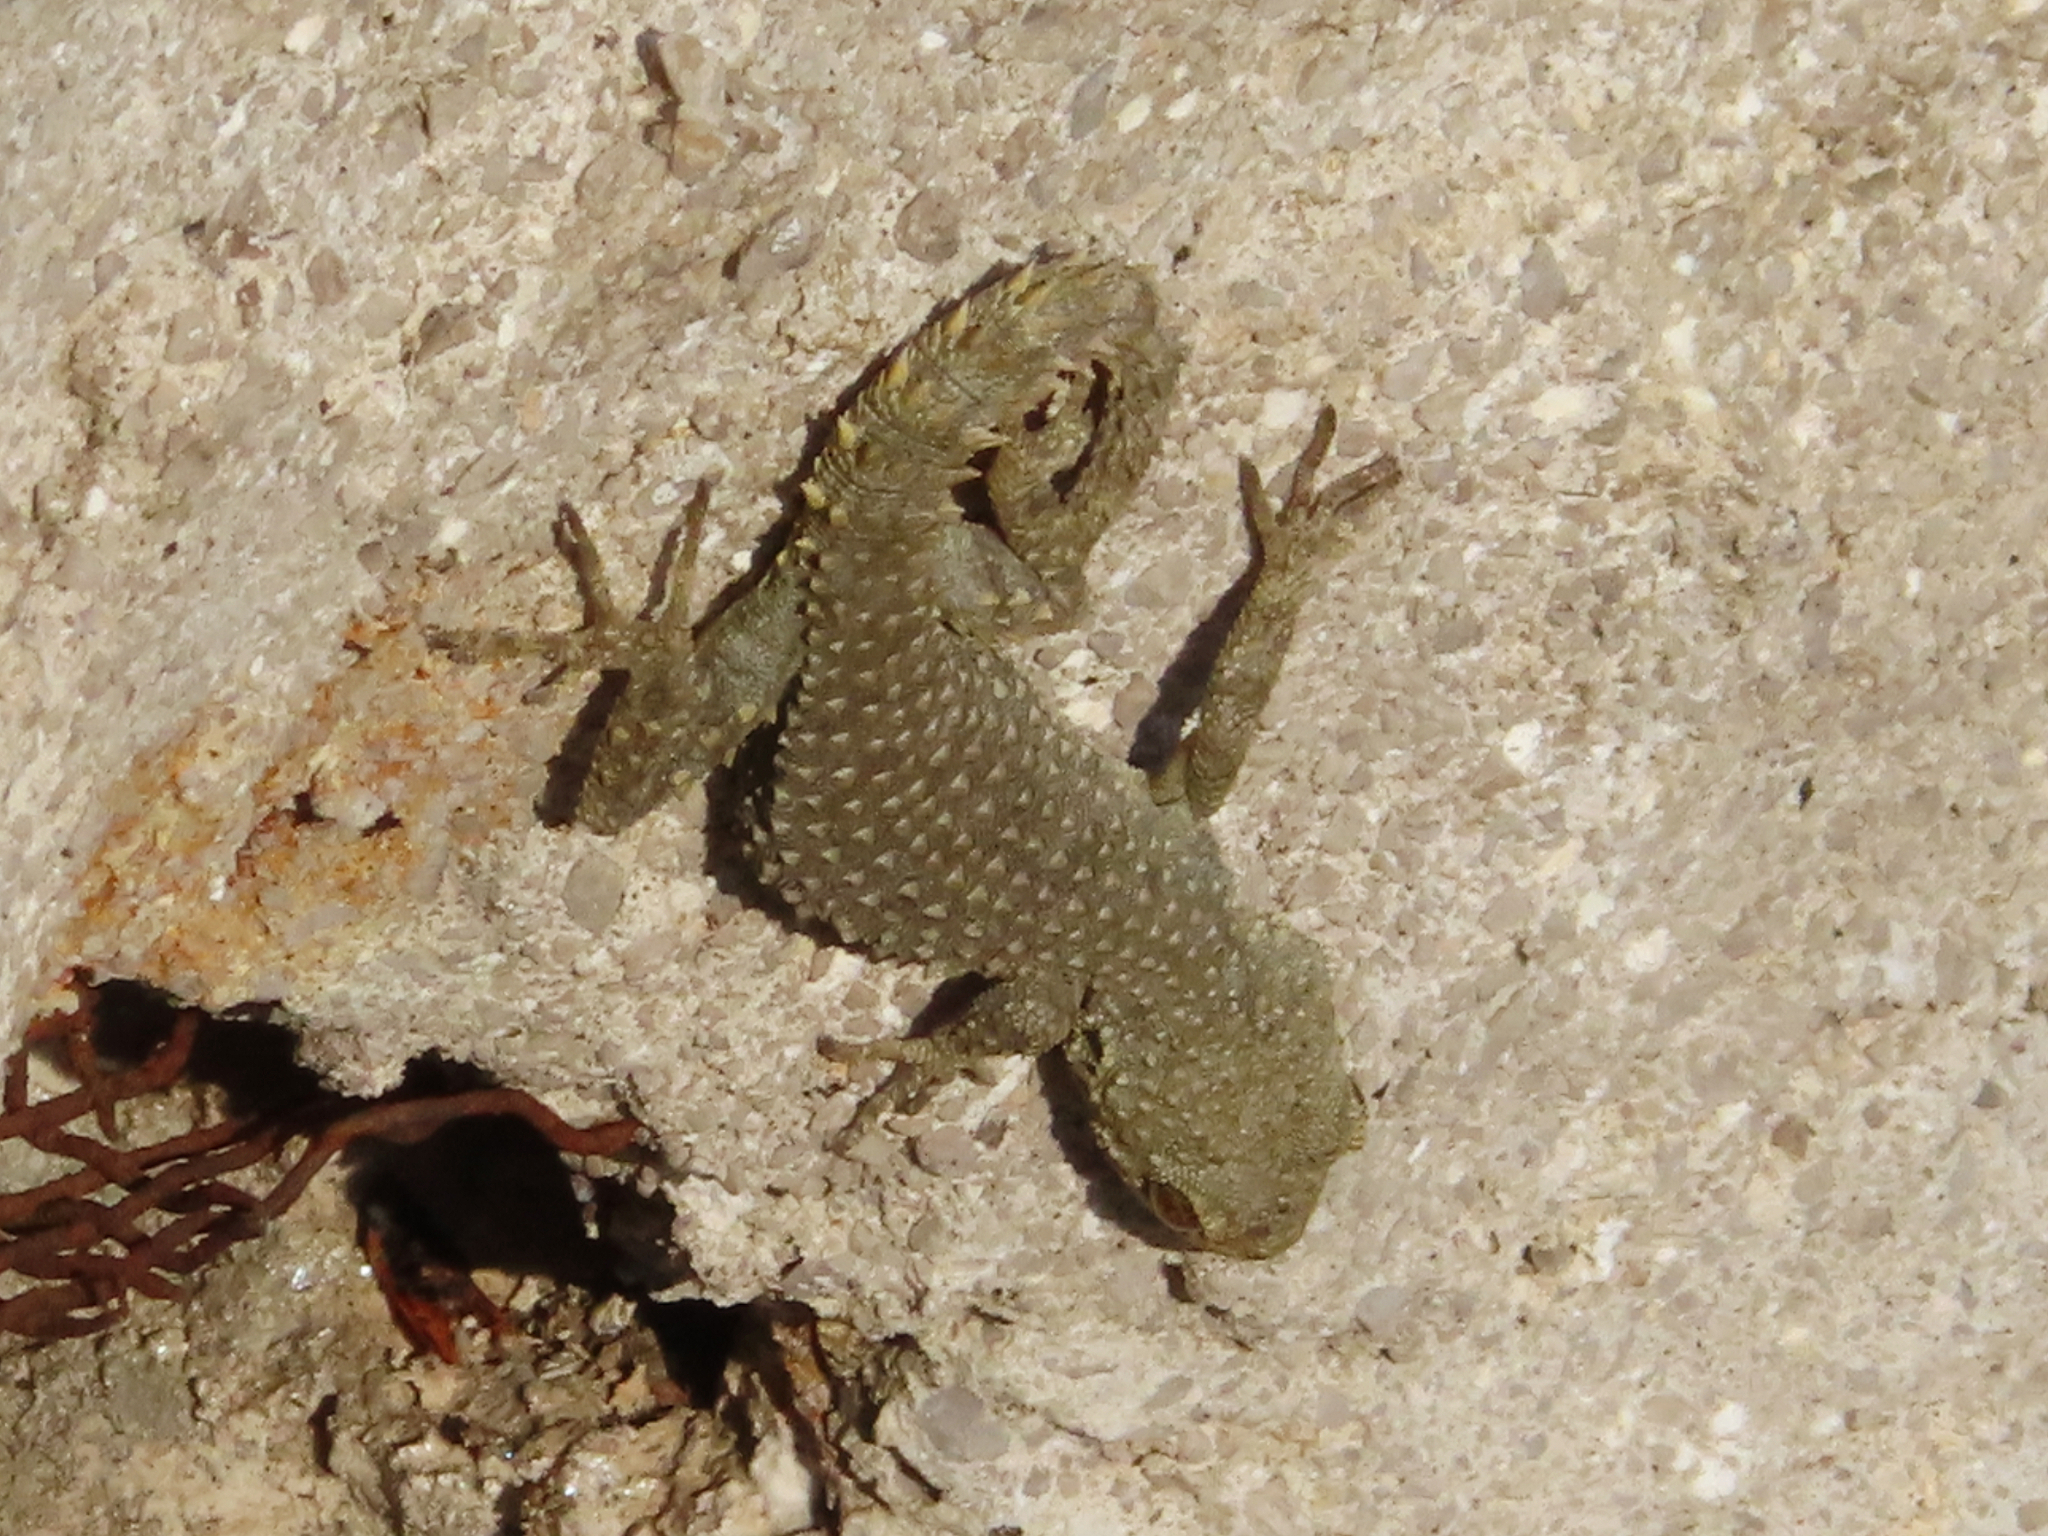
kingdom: Animalia
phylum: Chordata
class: Squamata
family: Gekkonidae
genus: Mediodactylus
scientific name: Mediodactylus kotschyi
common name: Kotschy's gecko
